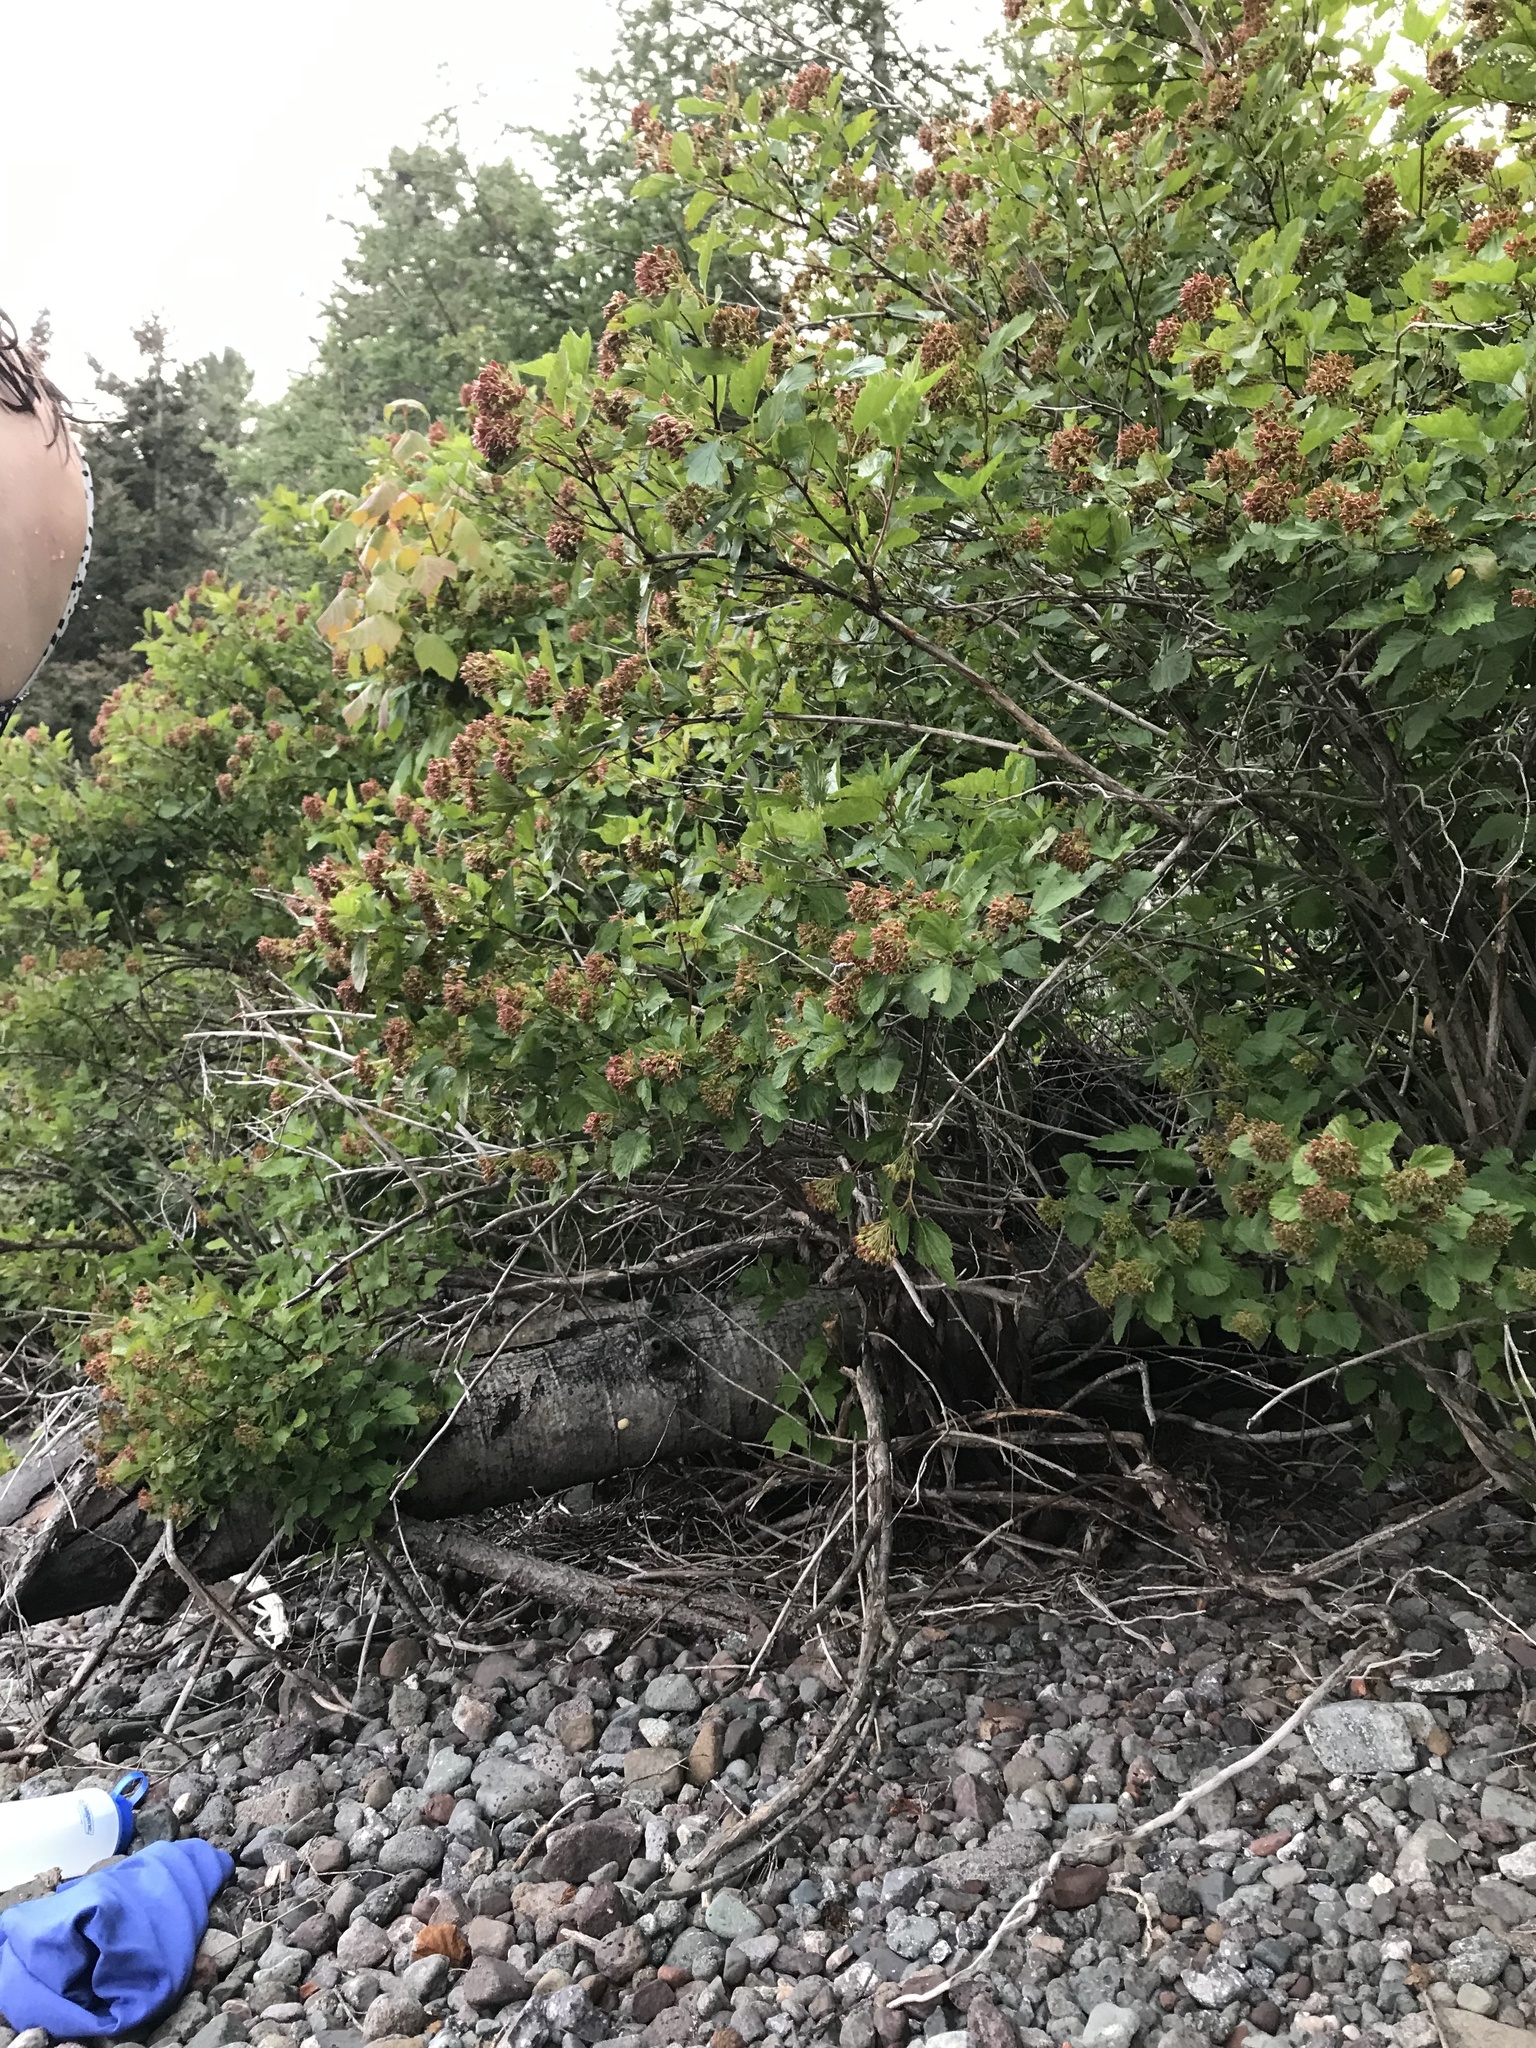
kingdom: Plantae
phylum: Tracheophyta
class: Magnoliopsida
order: Rosales
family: Rosaceae
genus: Physocarpus
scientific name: Physocarpus opulifolius
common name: Ninebark
